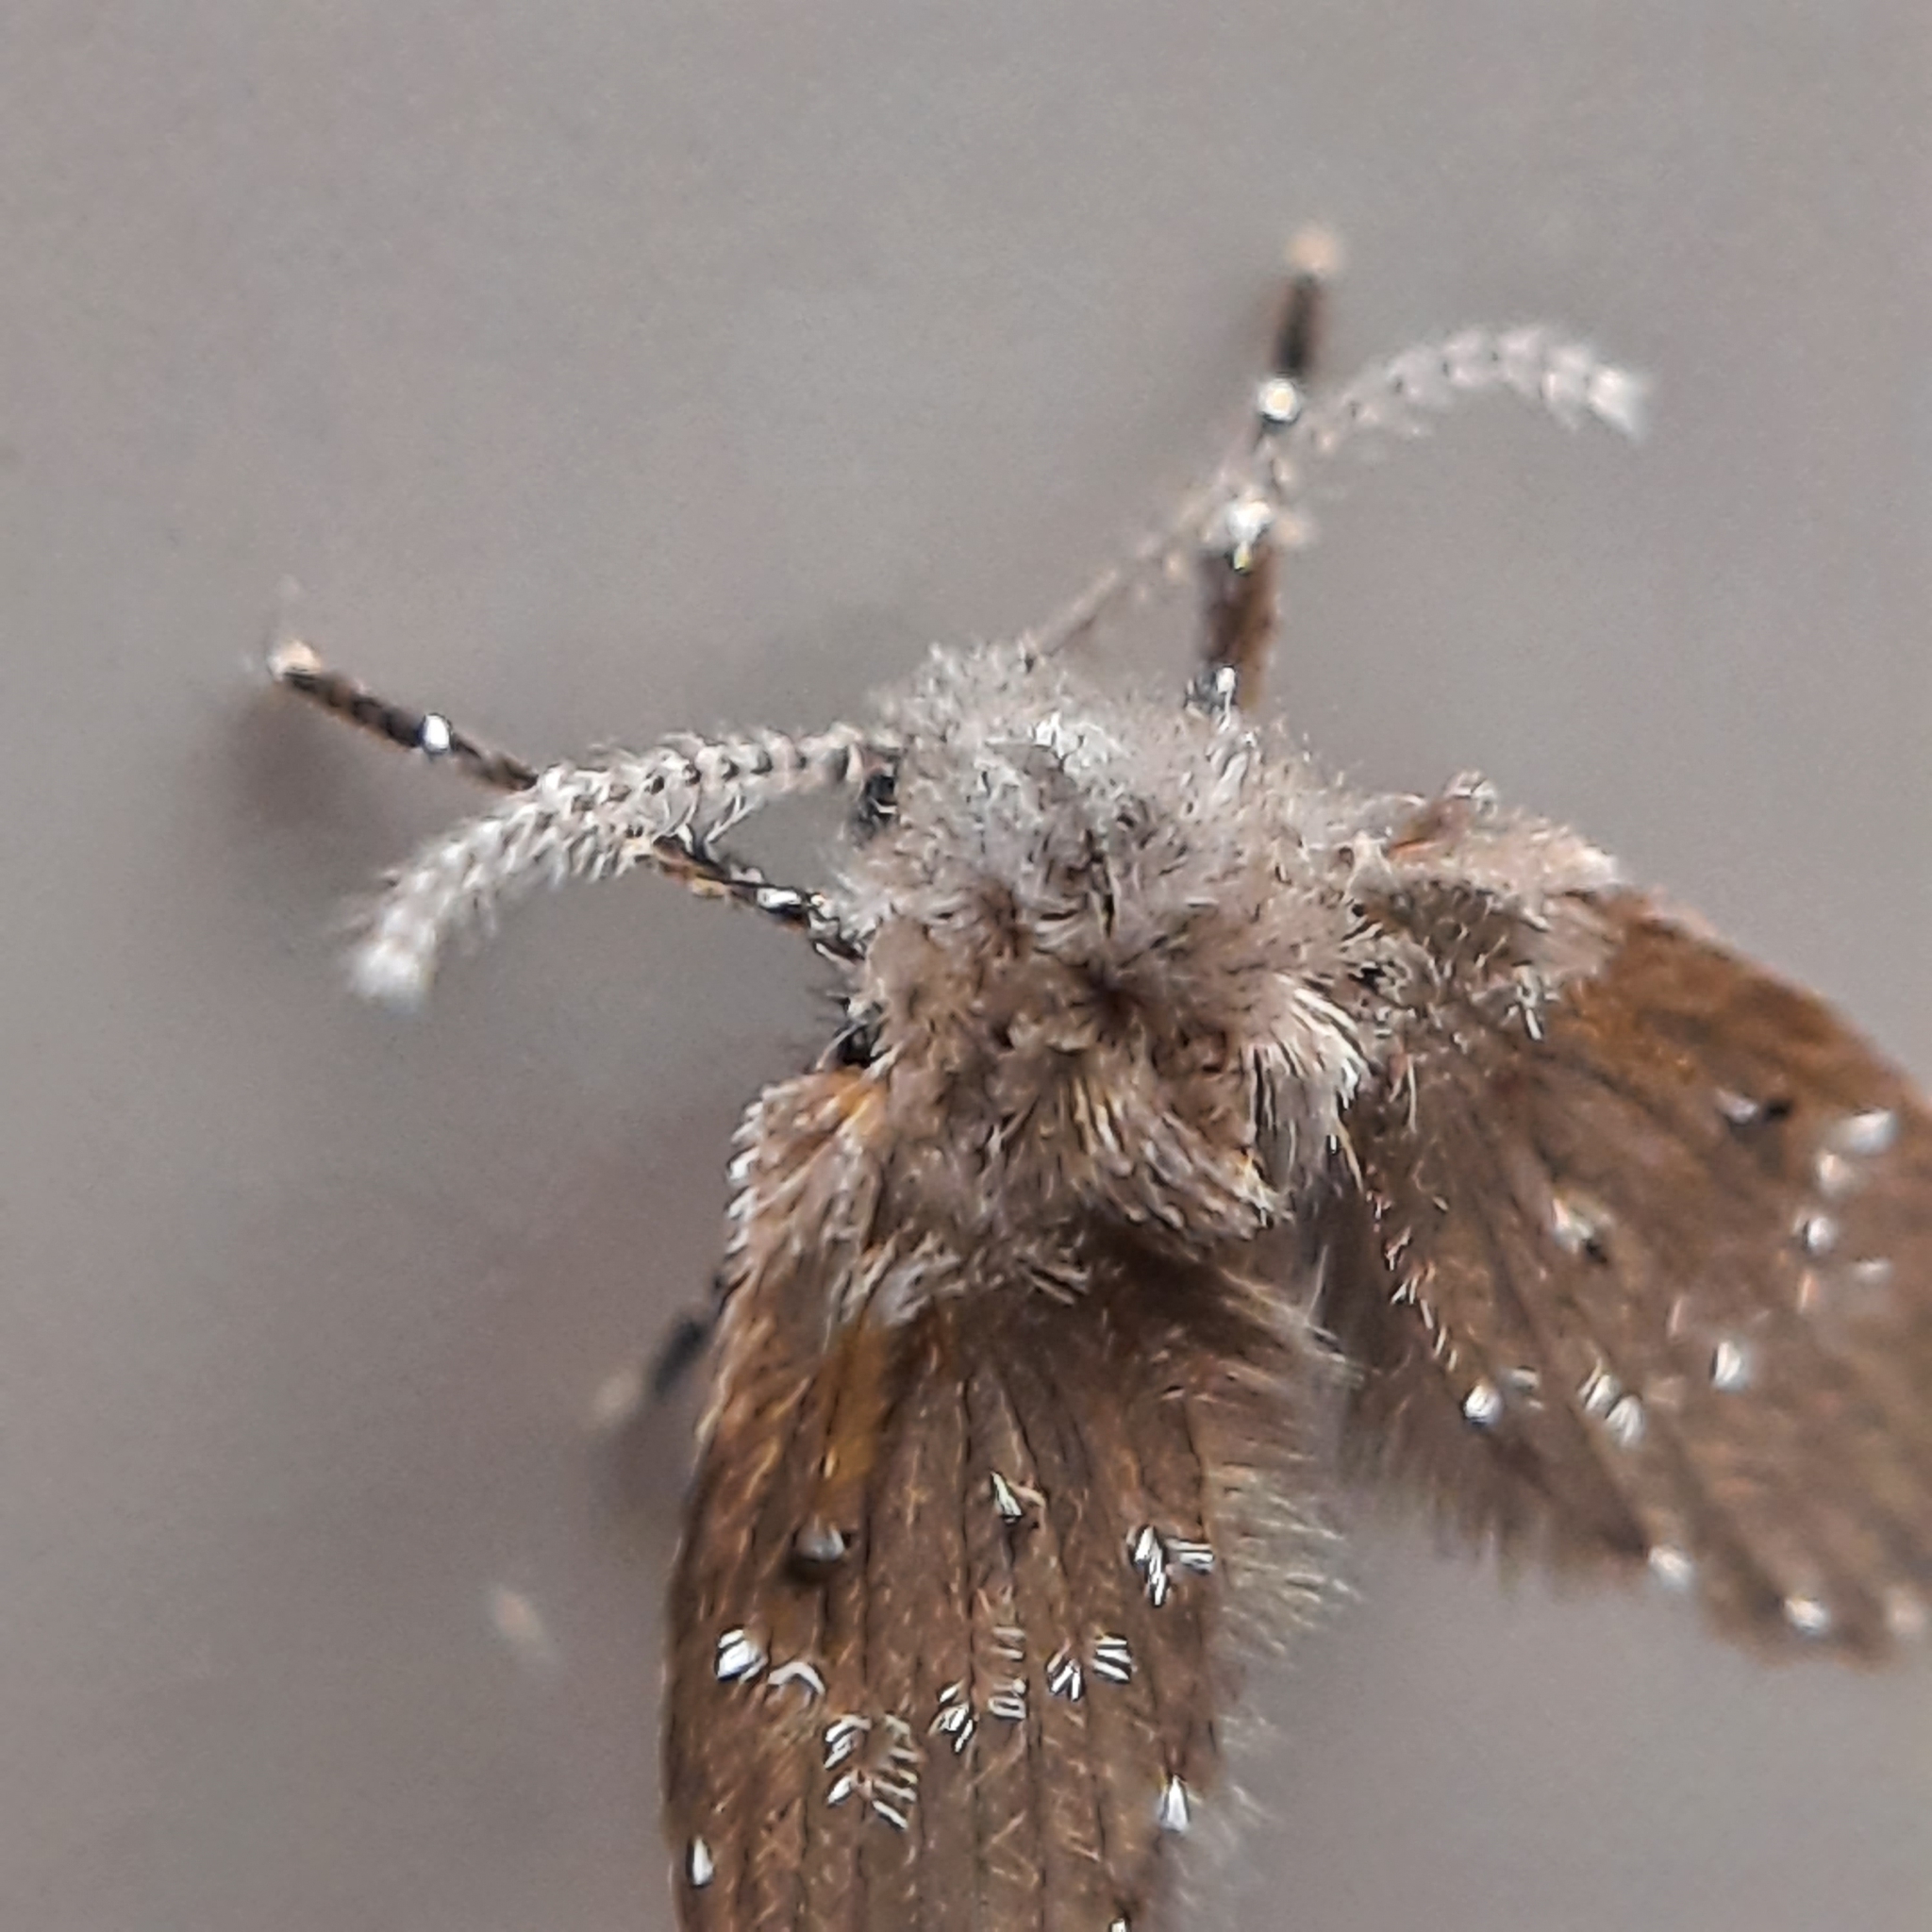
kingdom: Animalia
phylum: Arthropoda
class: Insecta
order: Diptera
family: Psychodidae
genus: Clogmia
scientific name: Clogmia albipunctatus
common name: White-spotted moth fly
